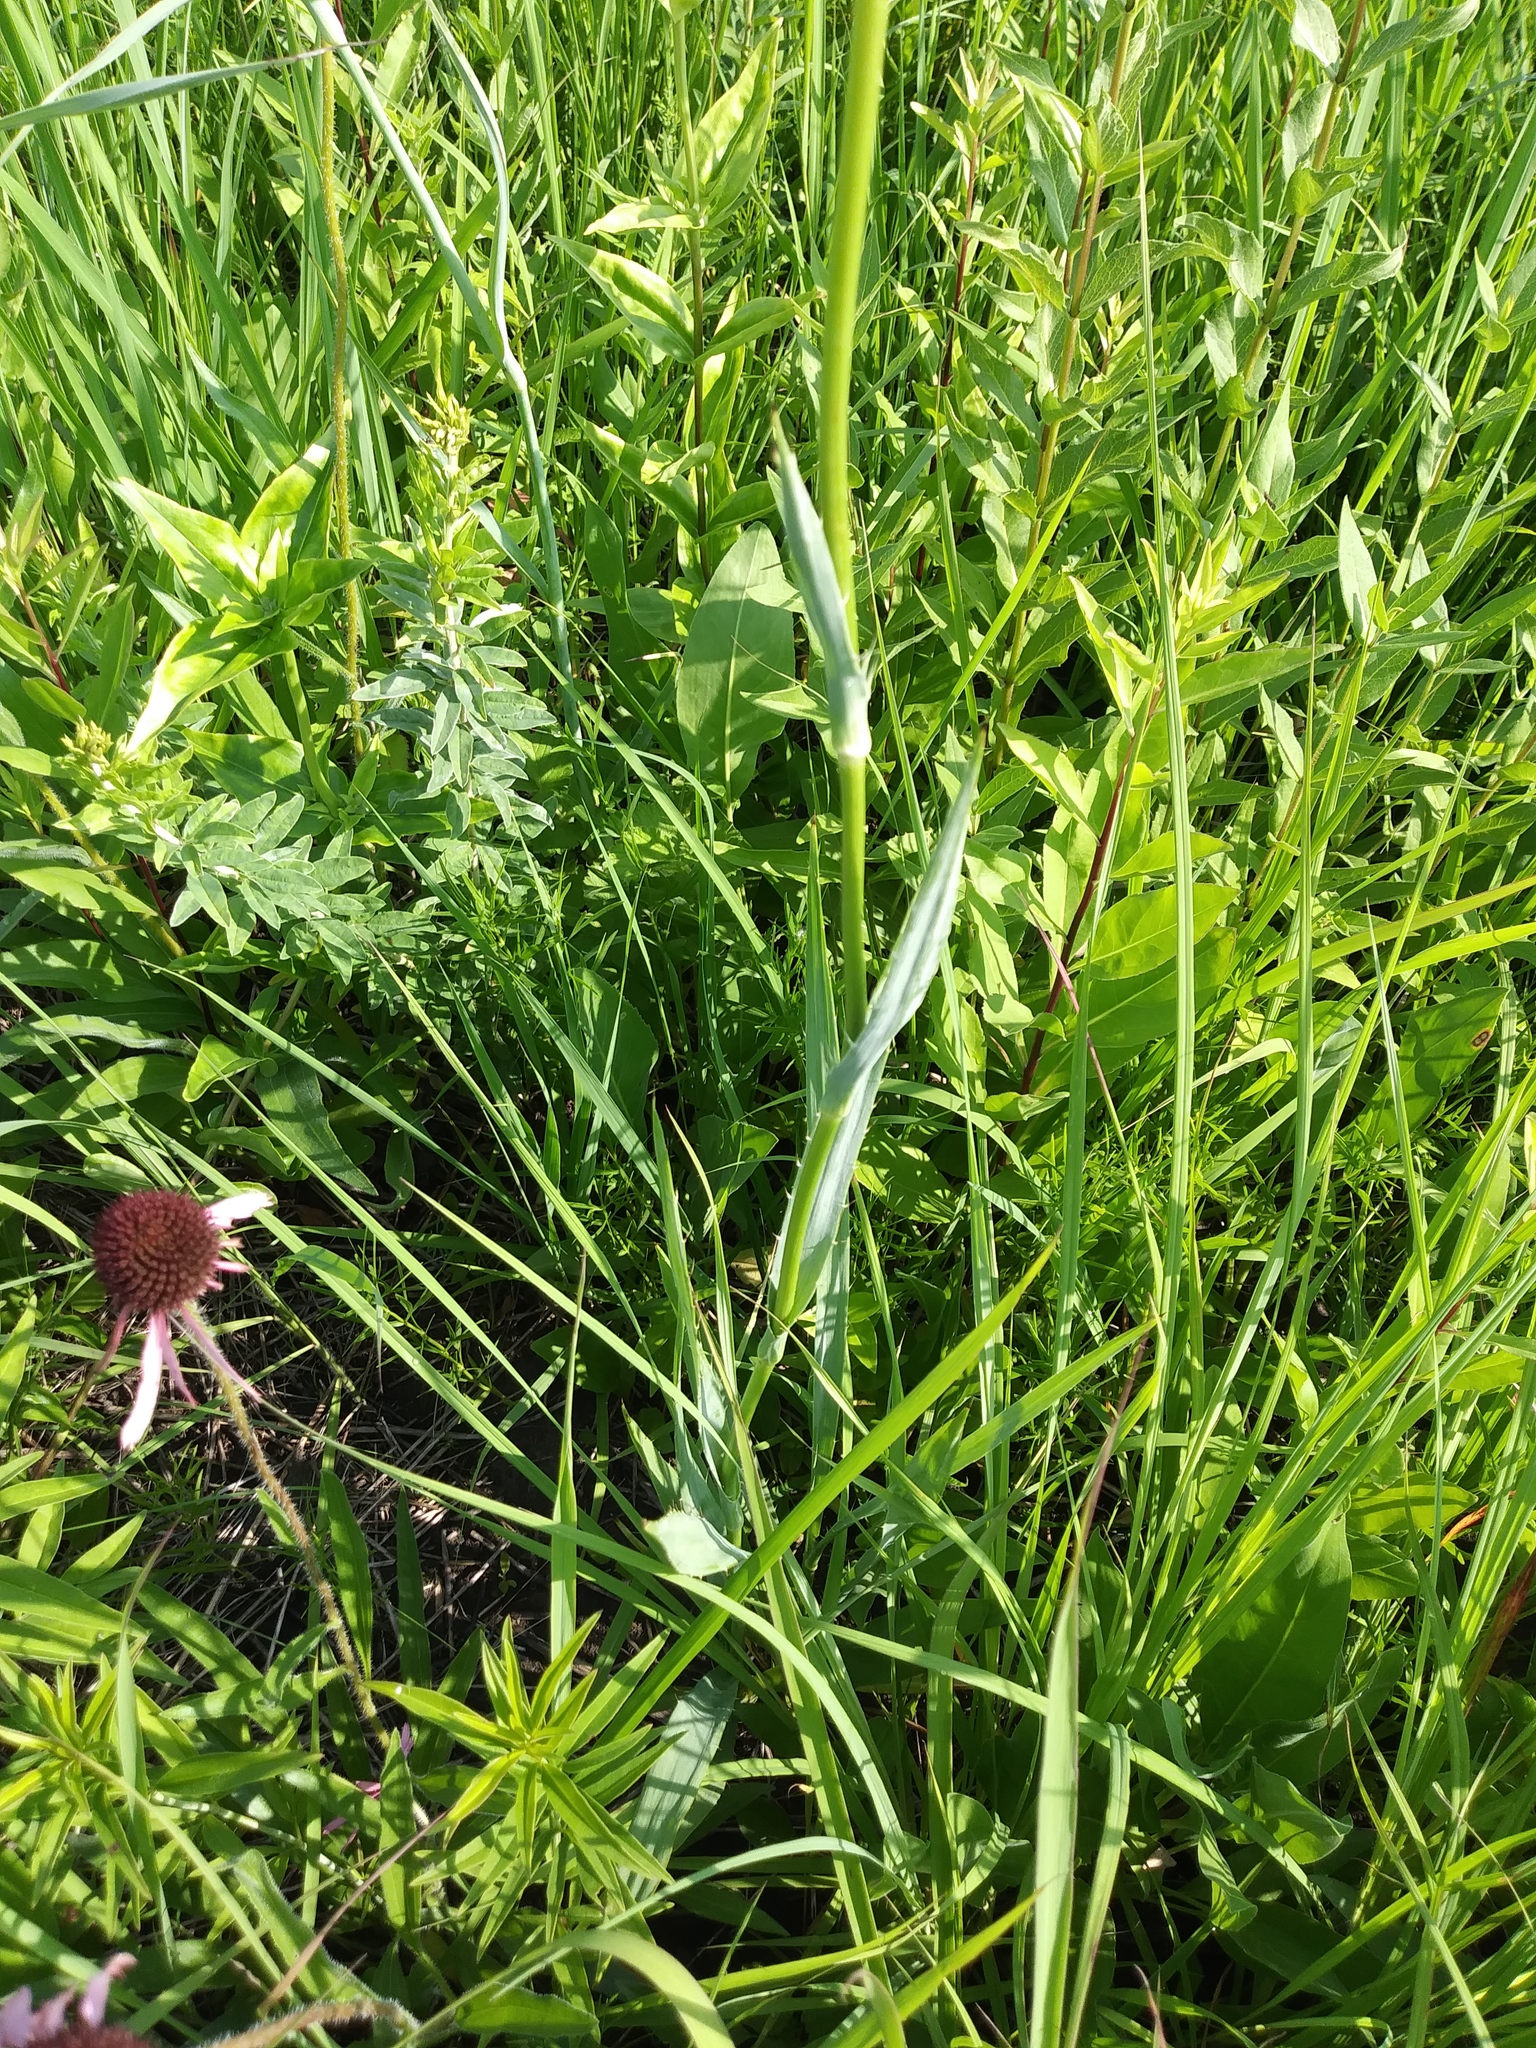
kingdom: Plantae
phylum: Tracheophyta
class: Magnoliopsida
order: Apiales
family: Apiaceae
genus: Eryngium
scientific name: Eryngium yuccifolium
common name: Button eryngo
